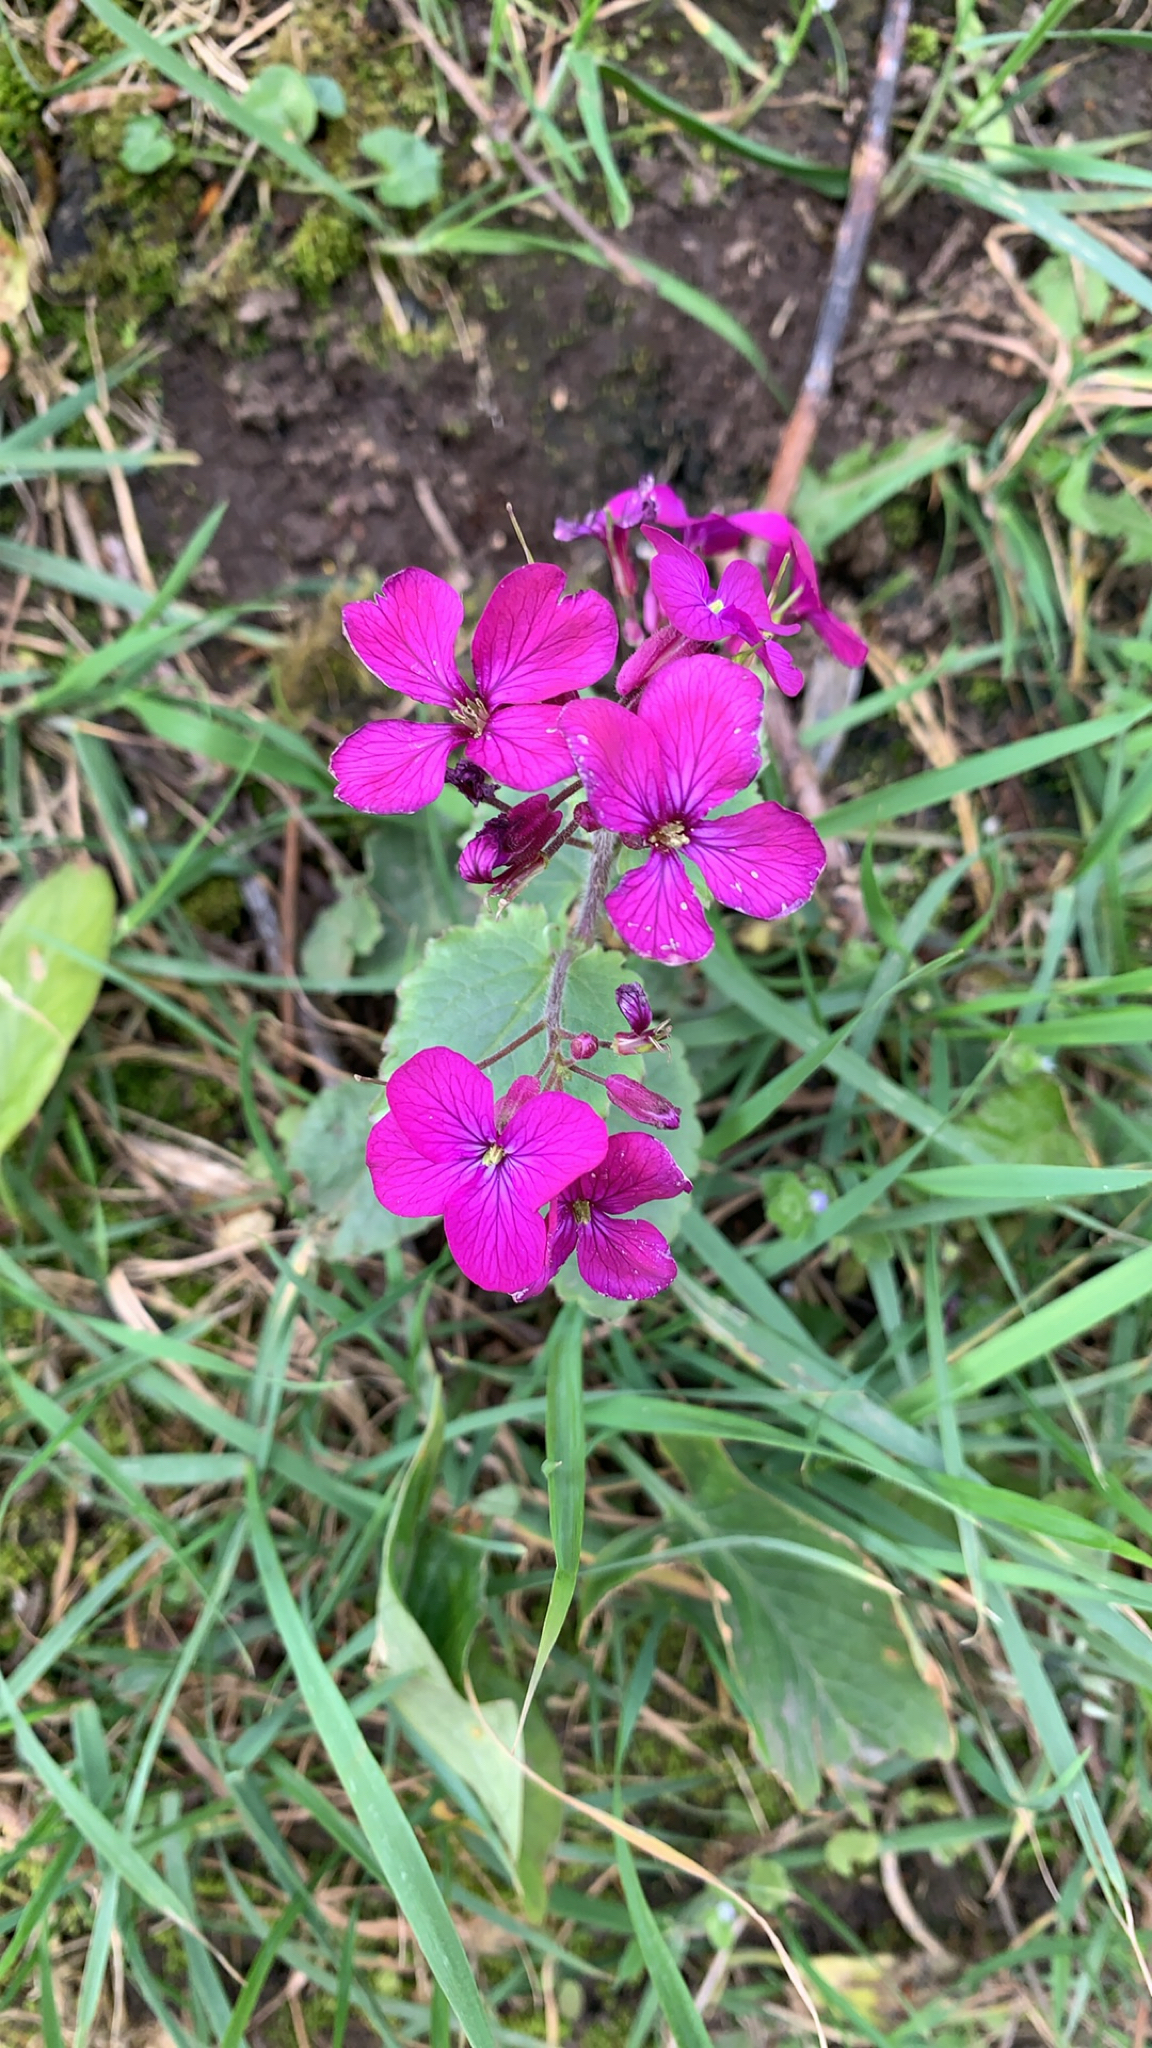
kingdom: Plantae
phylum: Tracheophyta
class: Magnoliopsida
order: Brassicales
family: Brassicaceae
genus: Lunaria
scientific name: Lunaria annua
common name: Honesty
